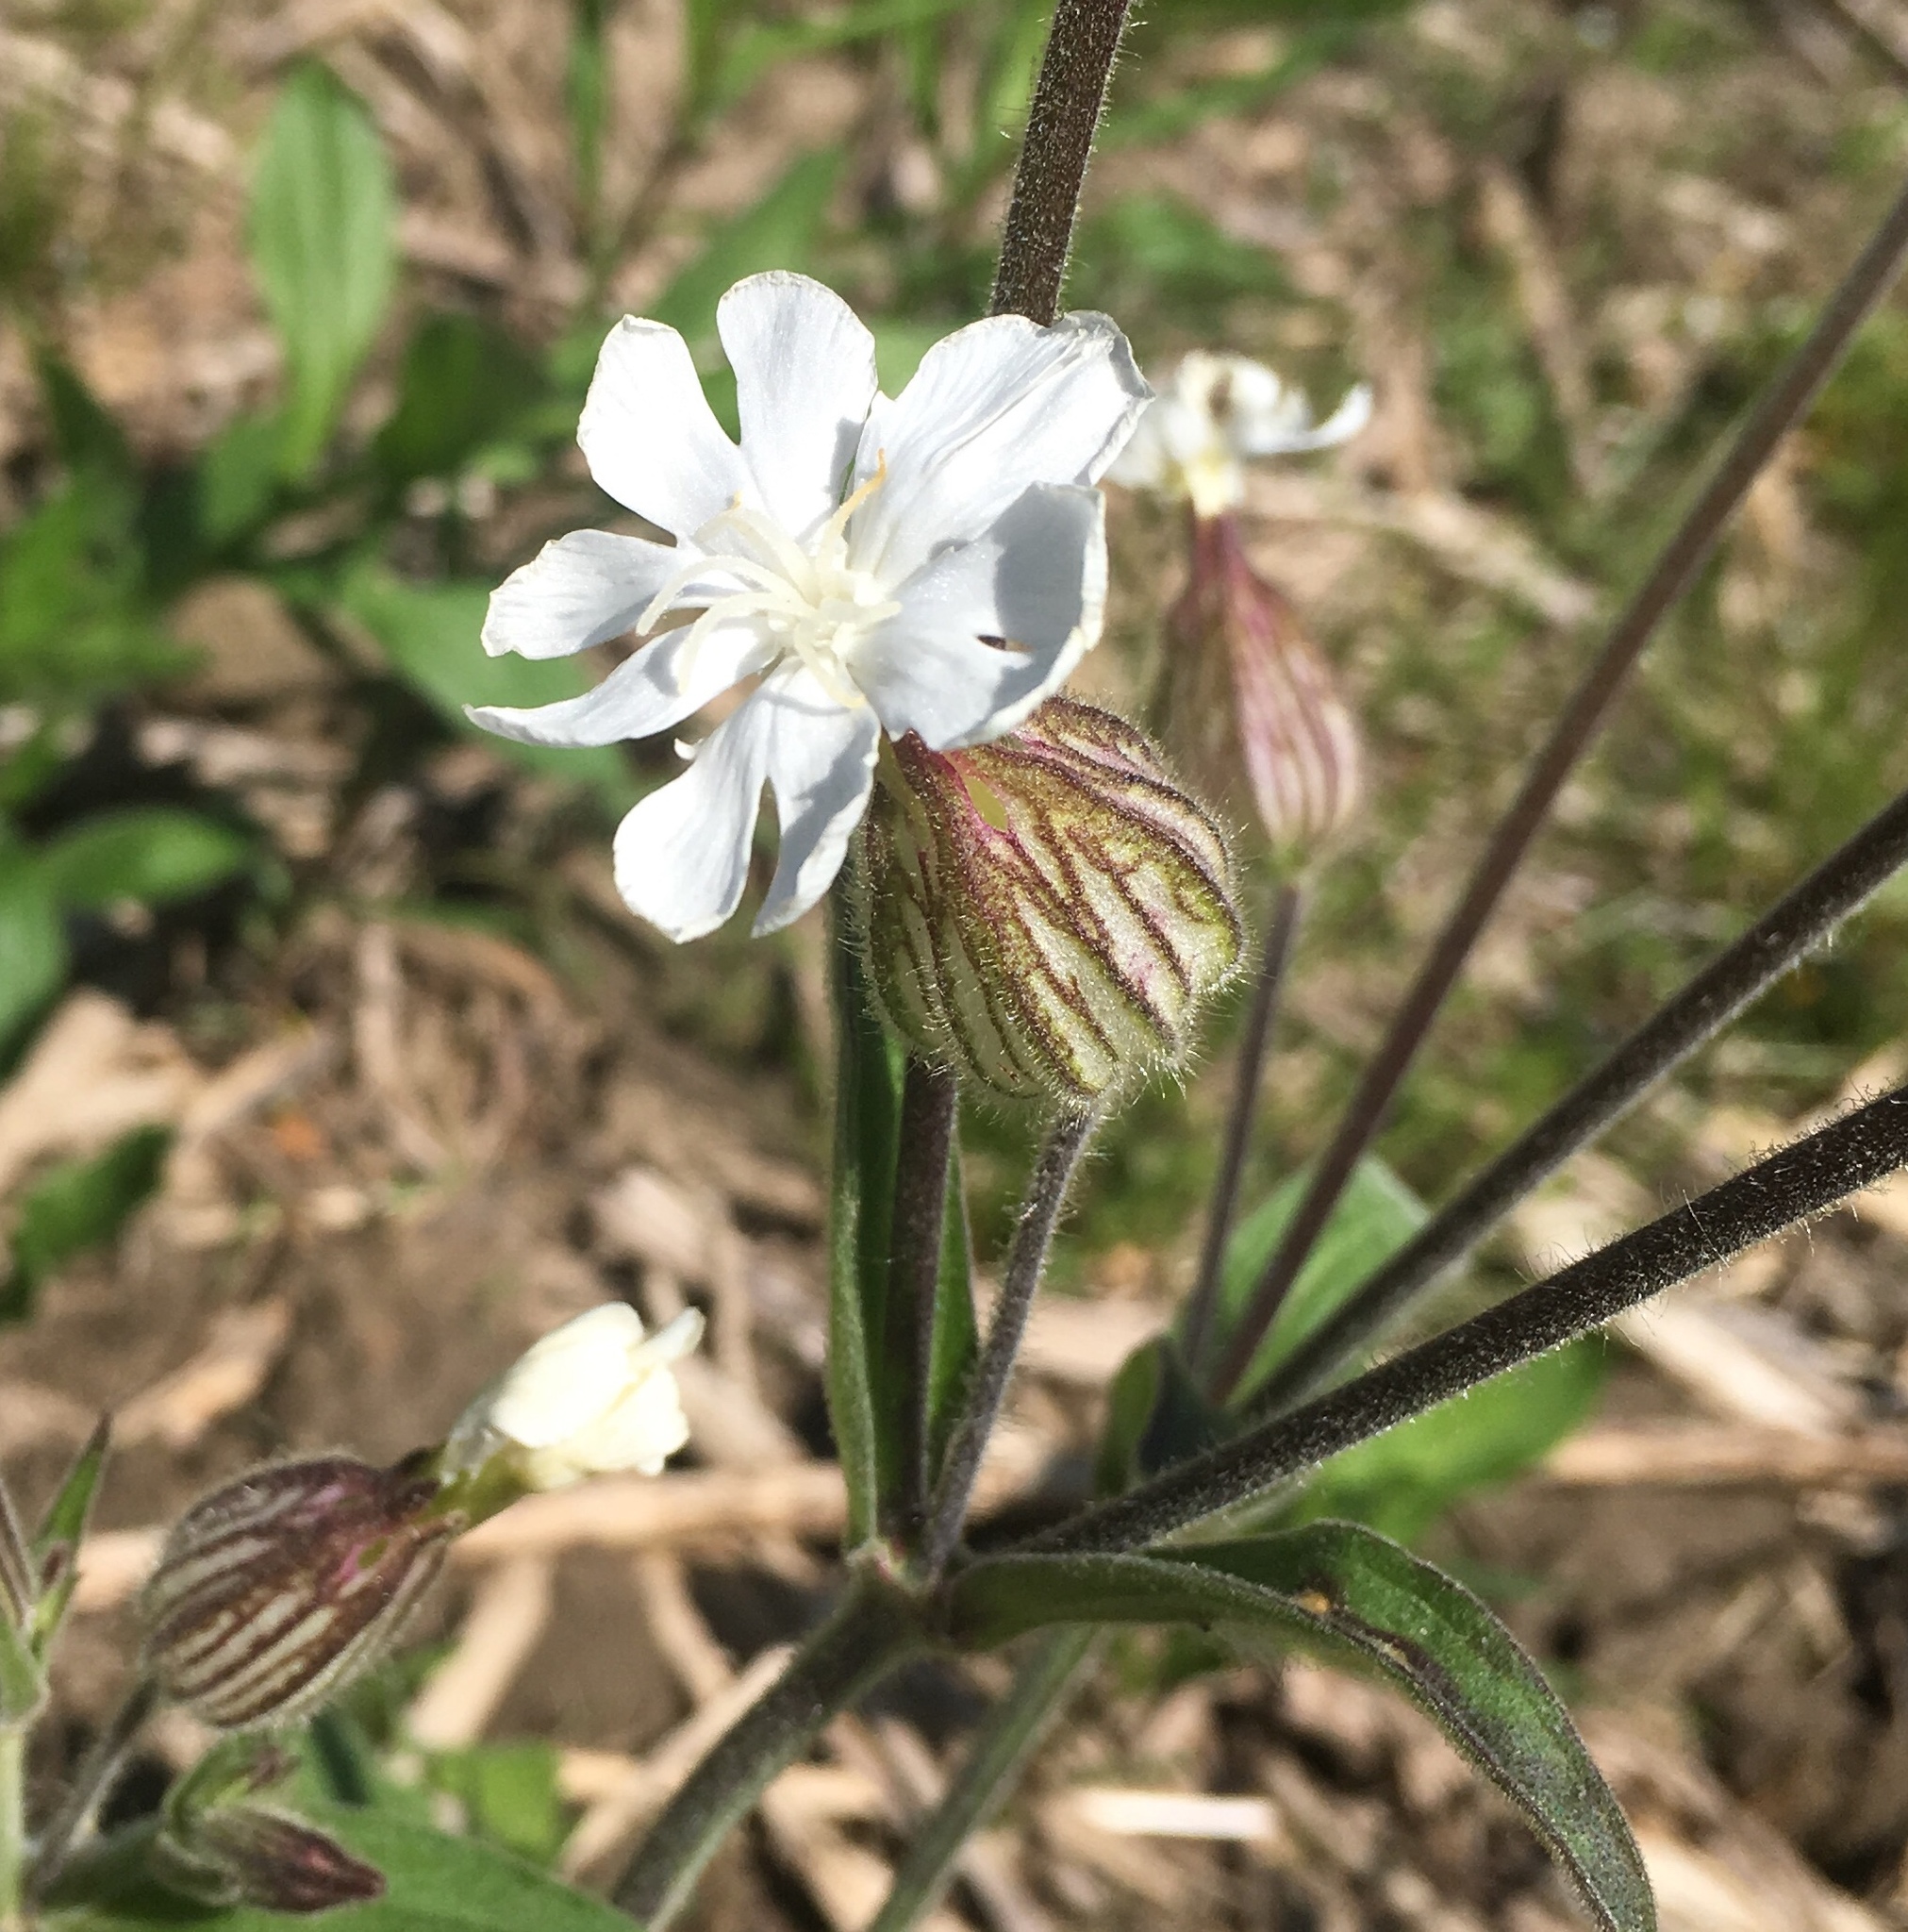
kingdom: Plantae
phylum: Tracheophyta
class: Magnoliopsida
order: Caryophyllales
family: Caryophyllaceae
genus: Silene
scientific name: Silene latifolia
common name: White campion
